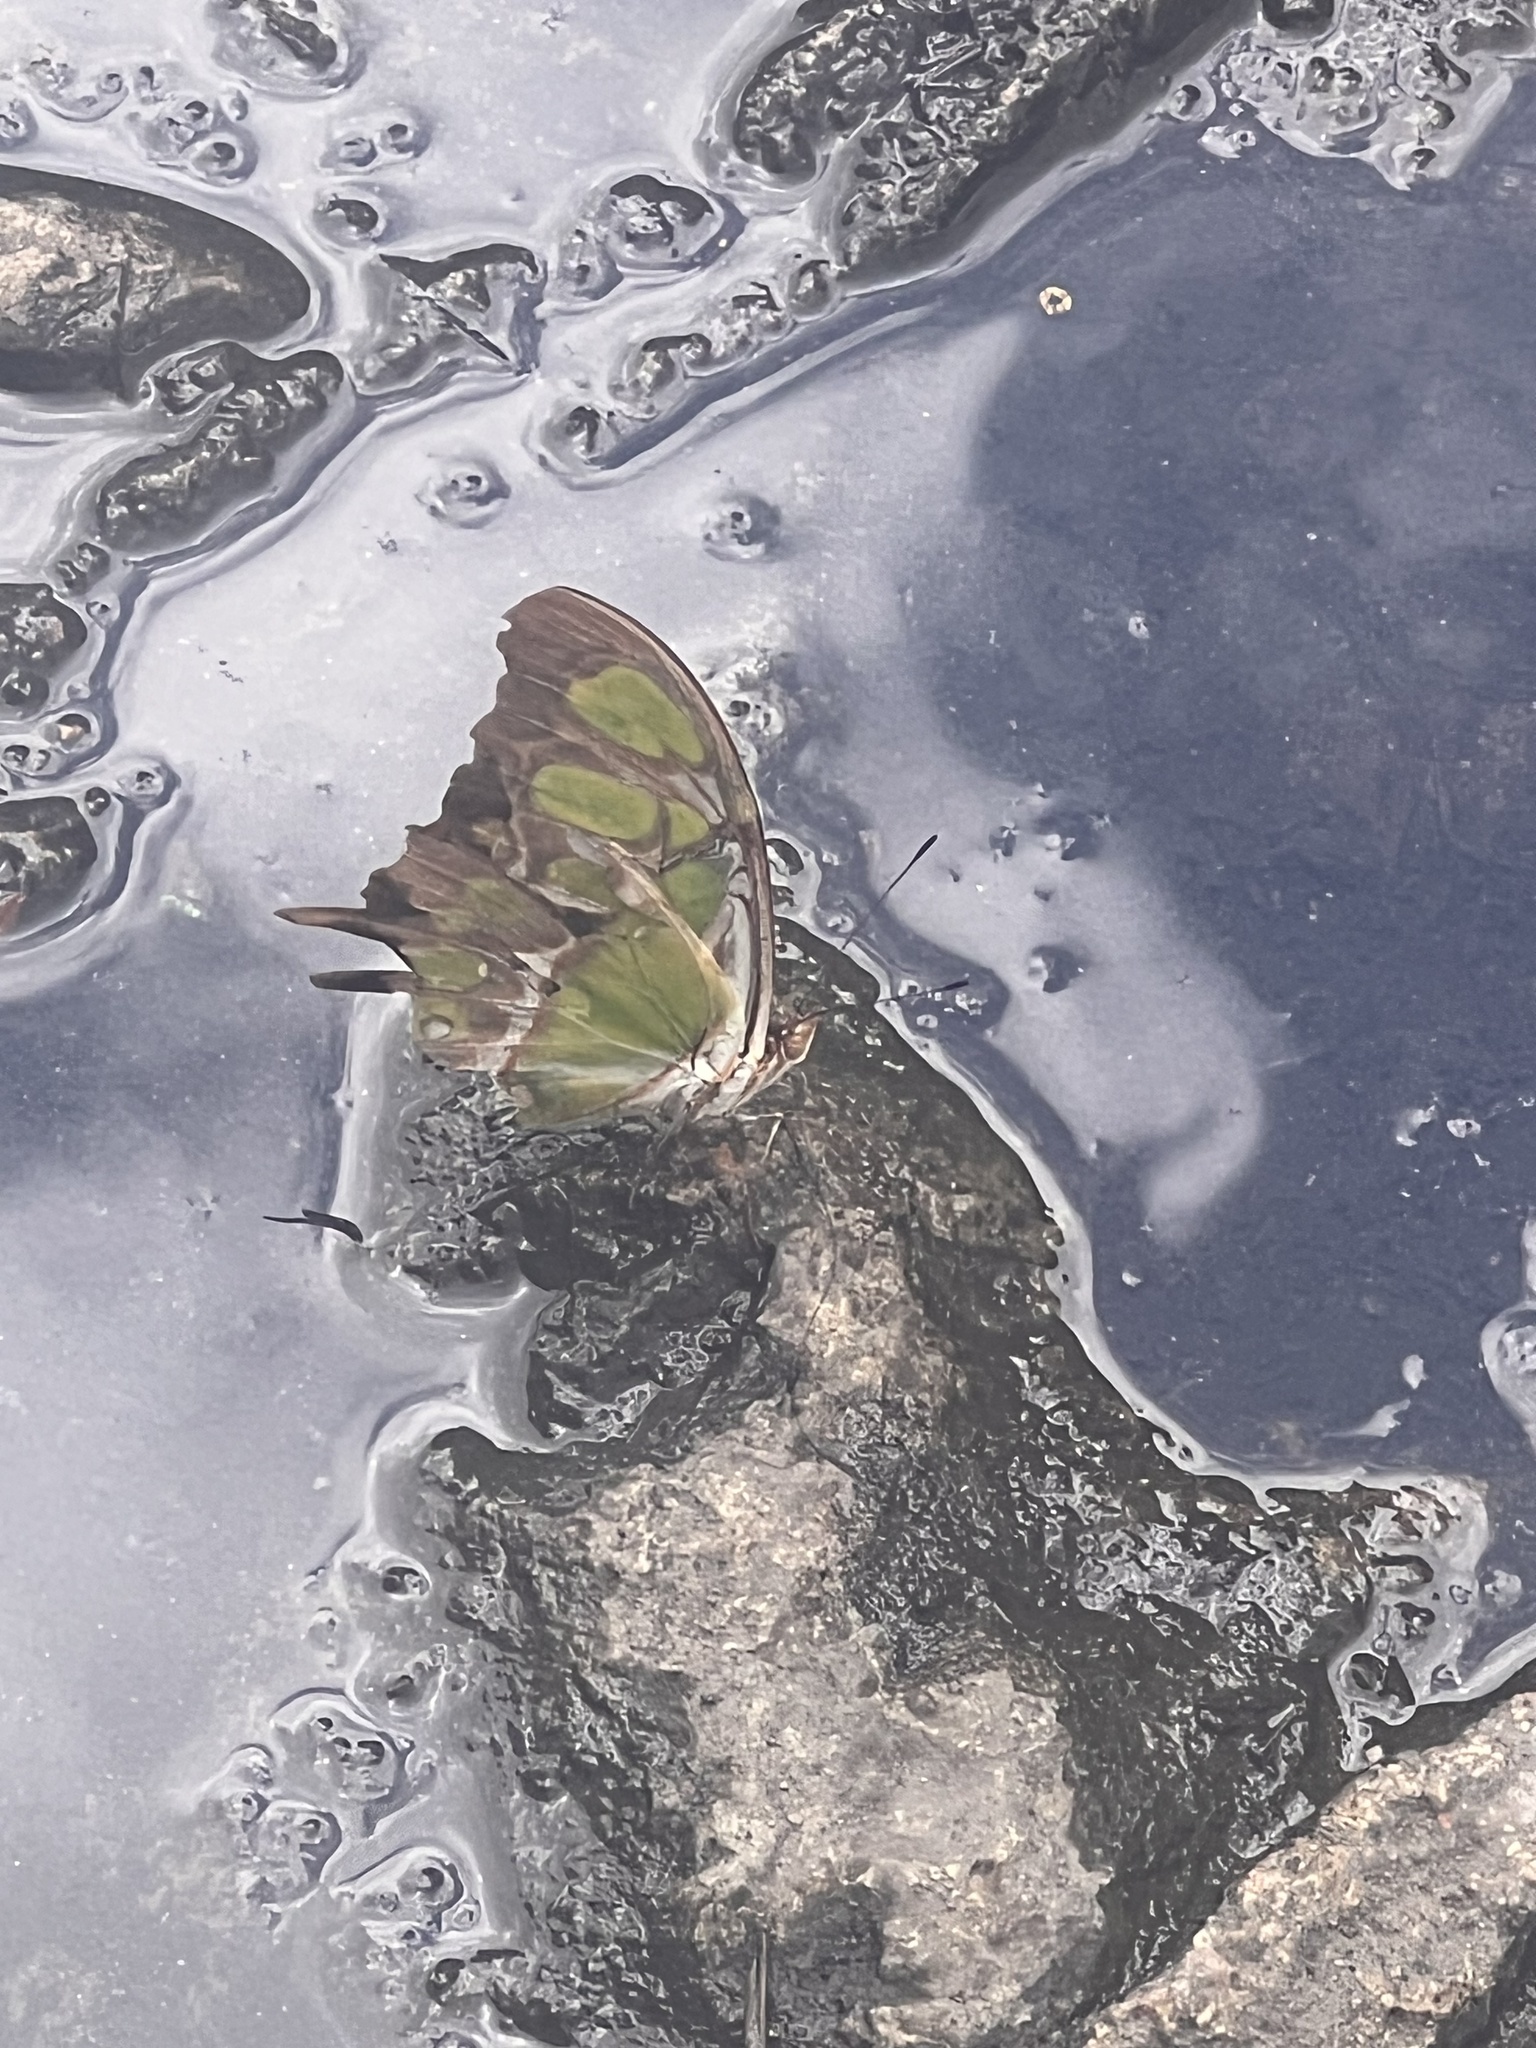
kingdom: Animalia
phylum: Arthropoda
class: Insecta
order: Lepidoptera
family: Nymphalidae
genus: Siproeta
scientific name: Siproeta stelenes
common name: Malachite
